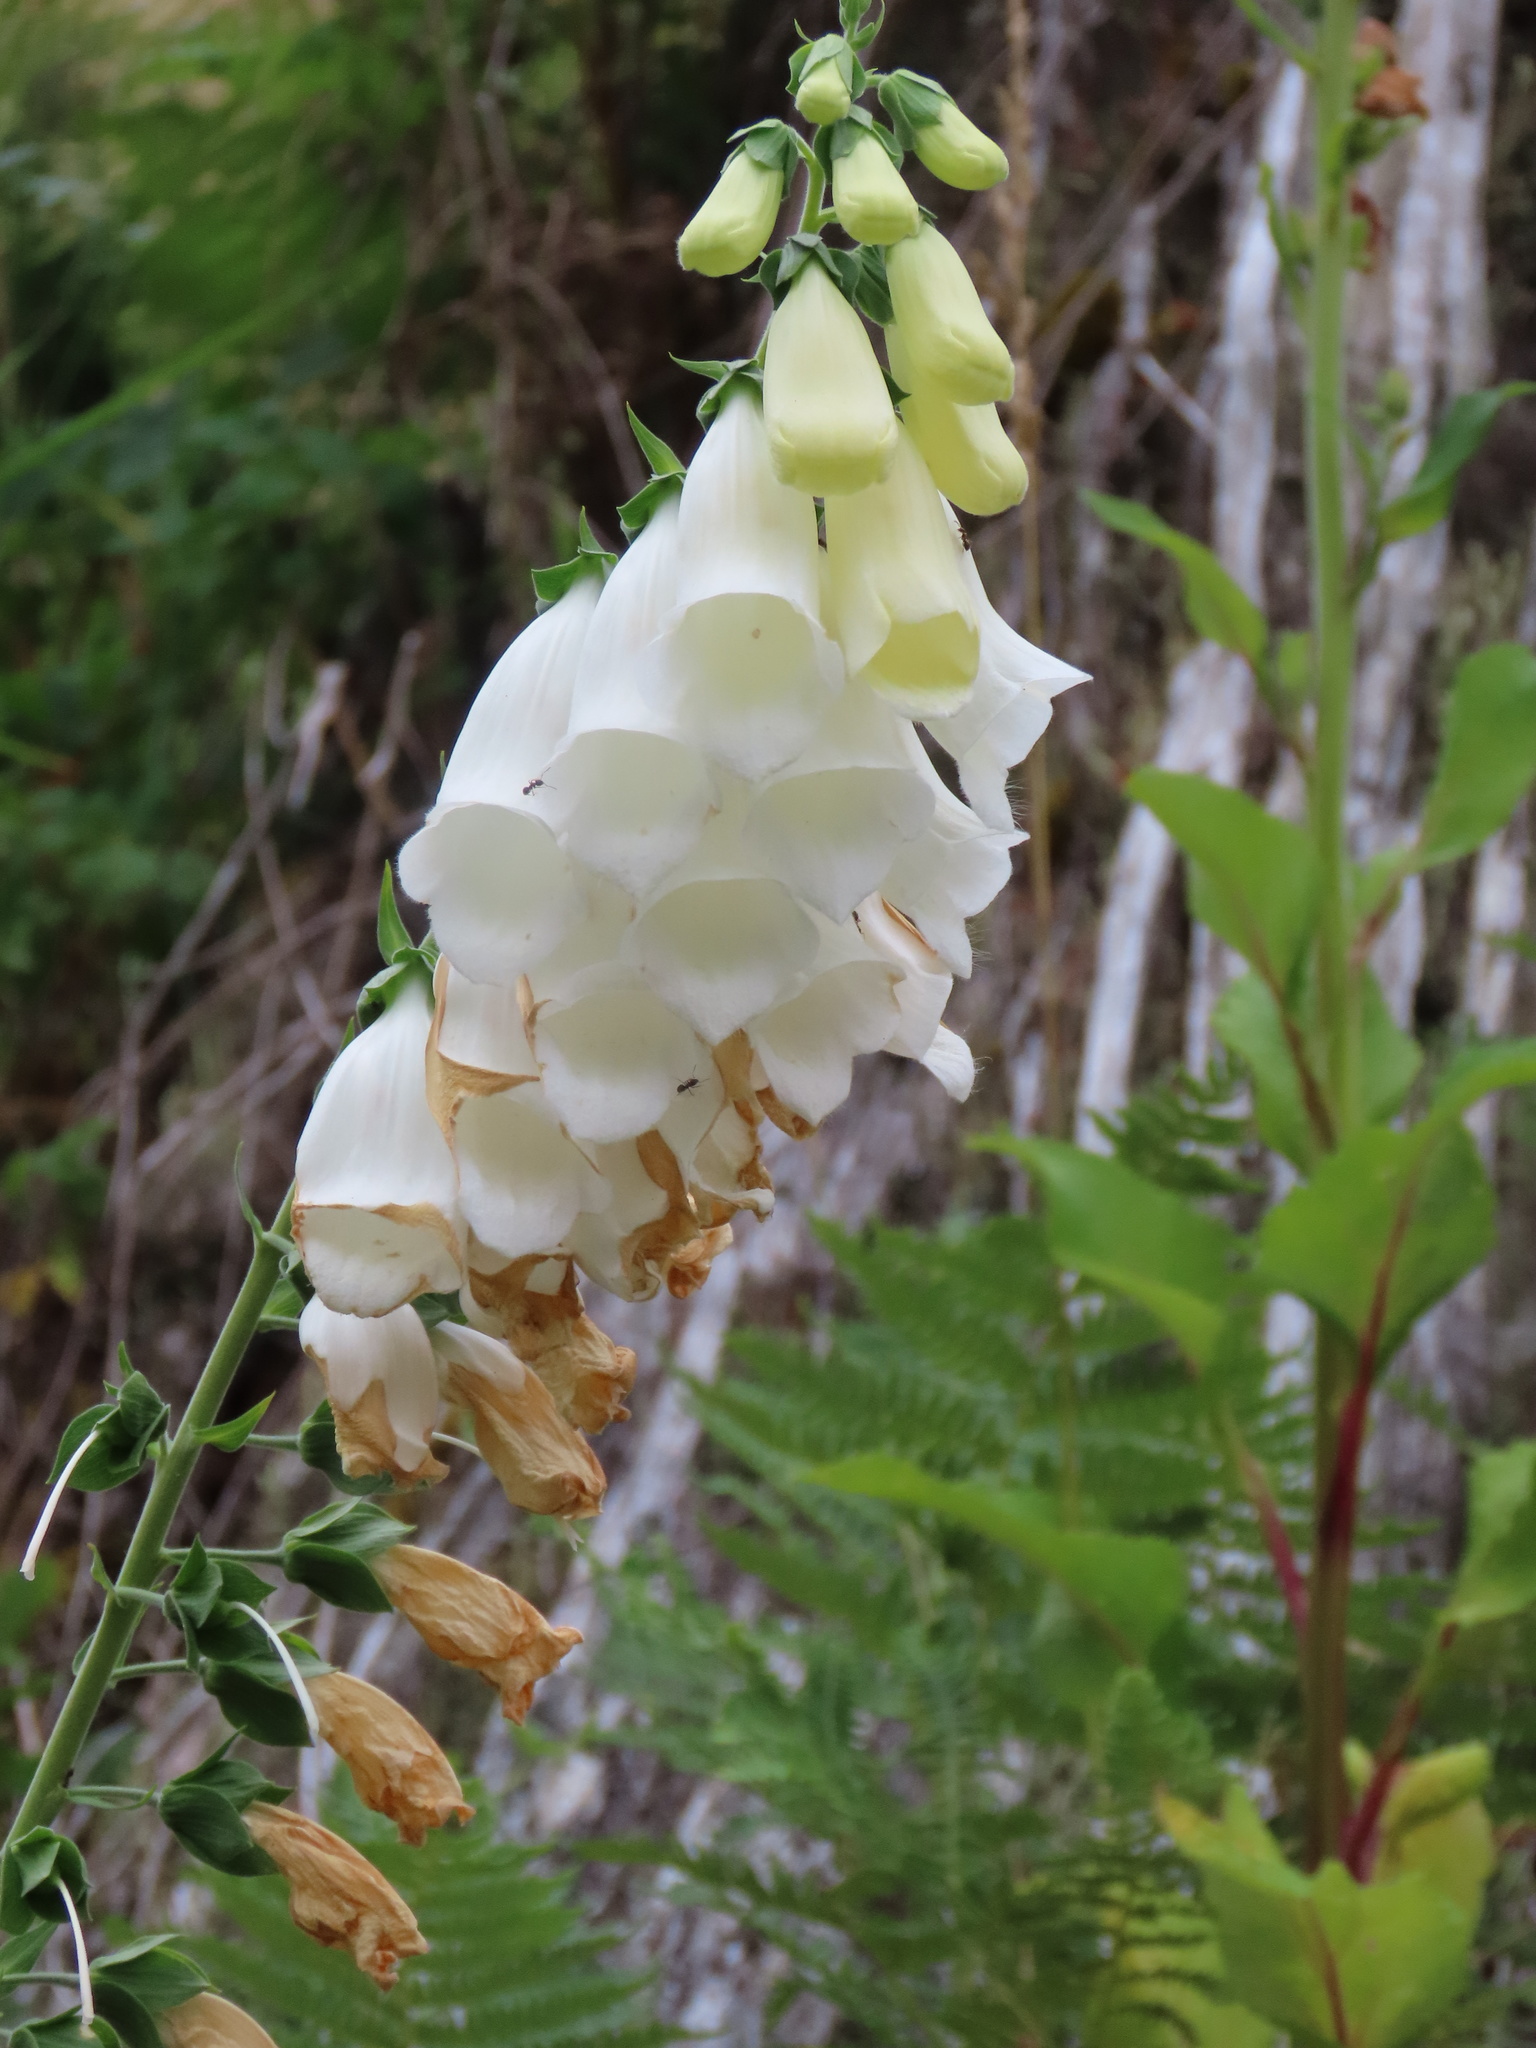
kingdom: Plantae
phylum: Tracheophyta
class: Magnoliopsida
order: Lamiales
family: Plantaginaceae
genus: Digitalis
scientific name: Digitalis purpurea
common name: Foxglove
